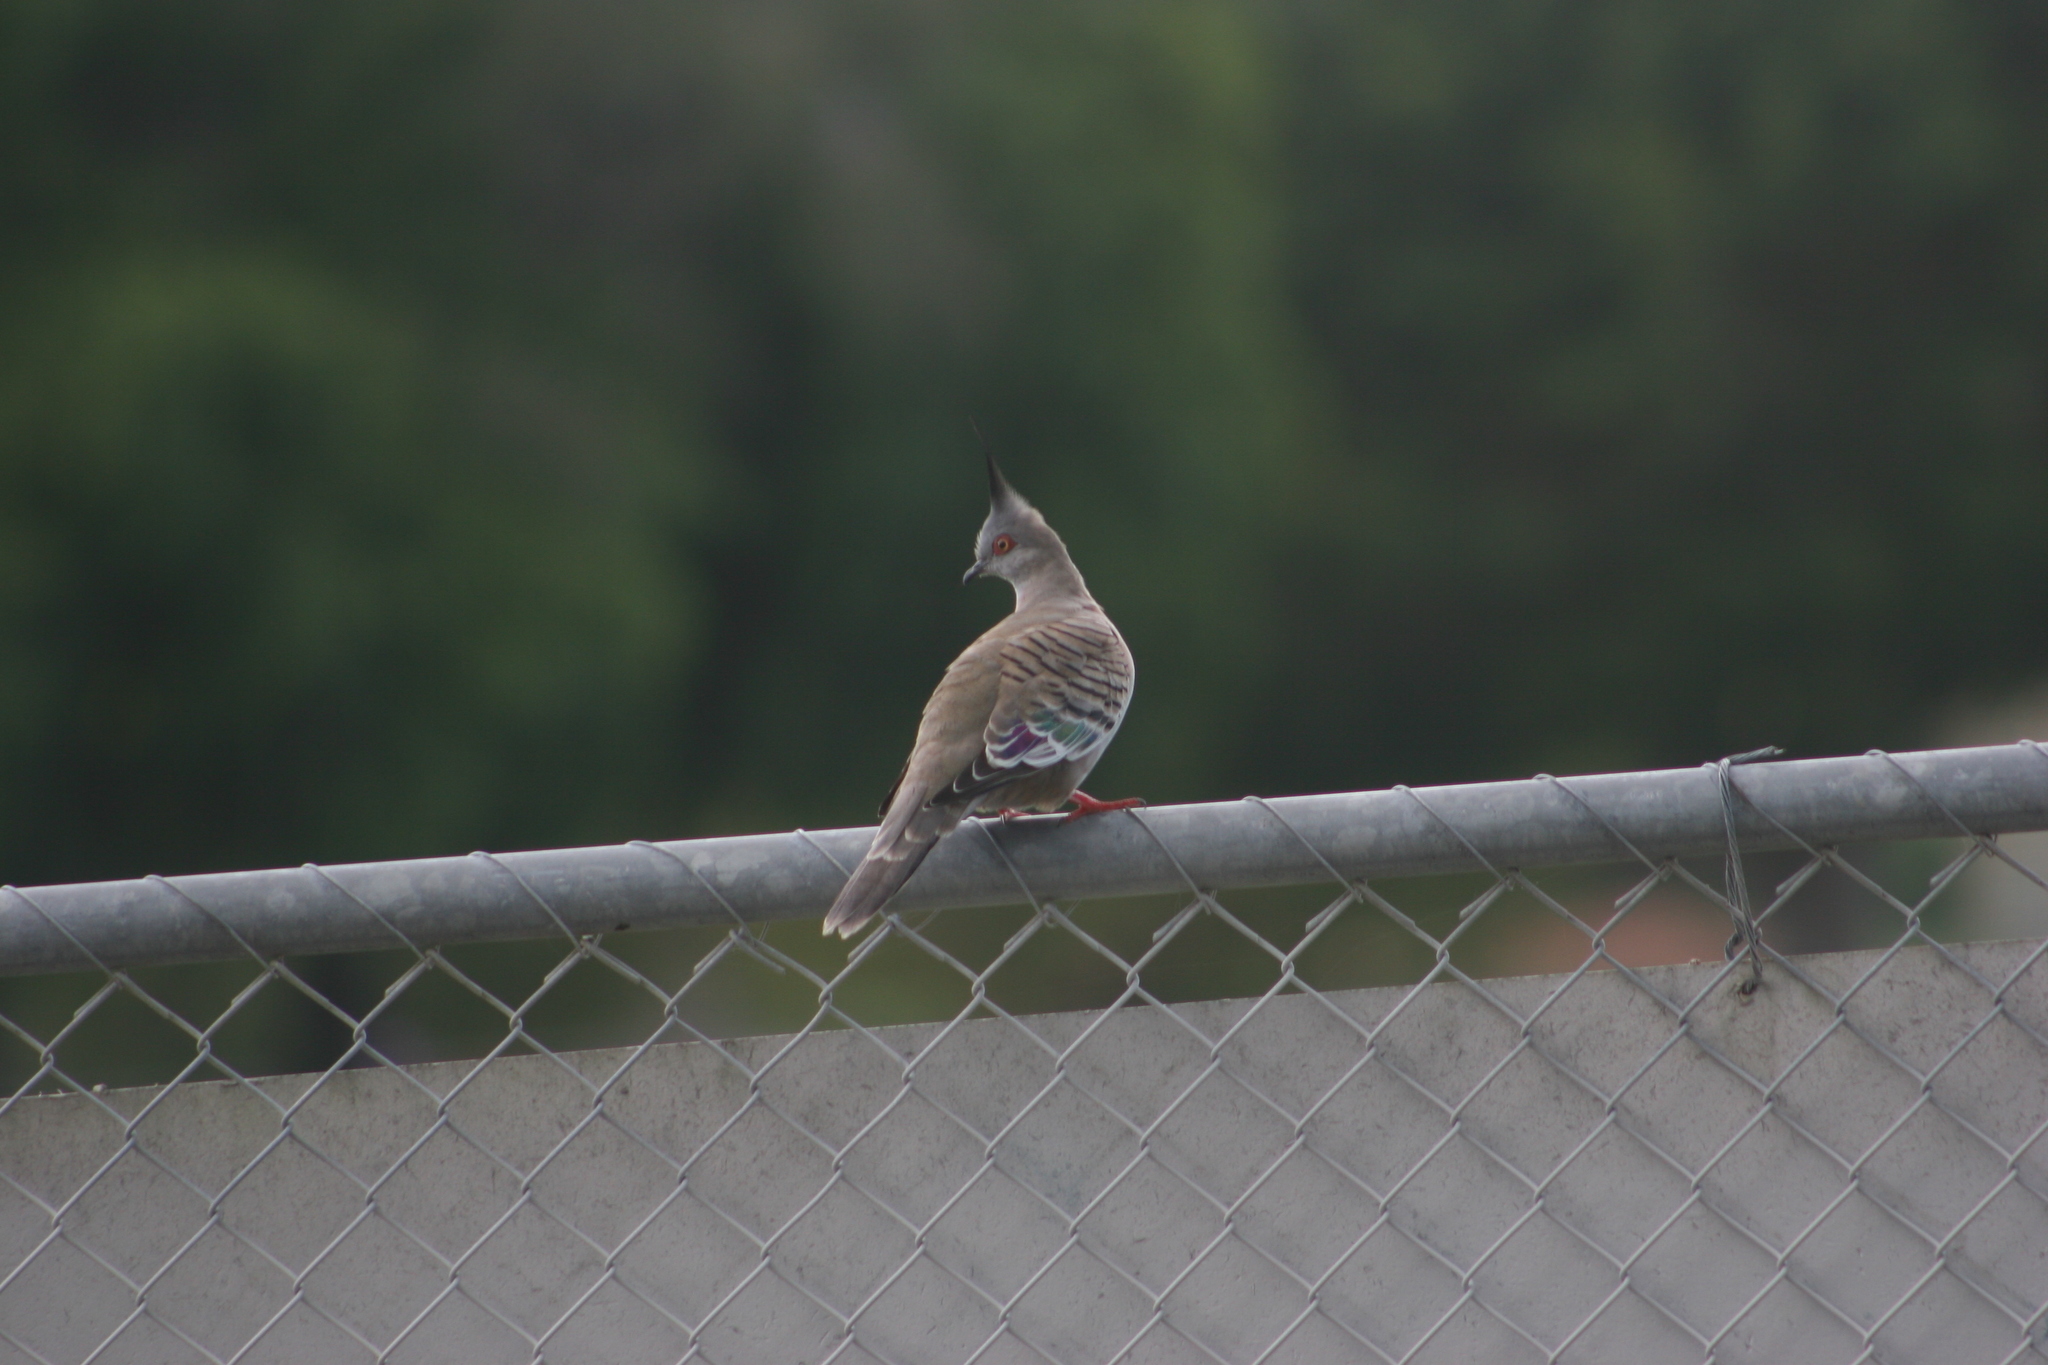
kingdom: Animalia
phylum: Chordata
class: Aves
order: Columbiformes
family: Columbidae
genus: Ocyphaps
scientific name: Ocyphaps lophotes
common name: Crested pigeon
